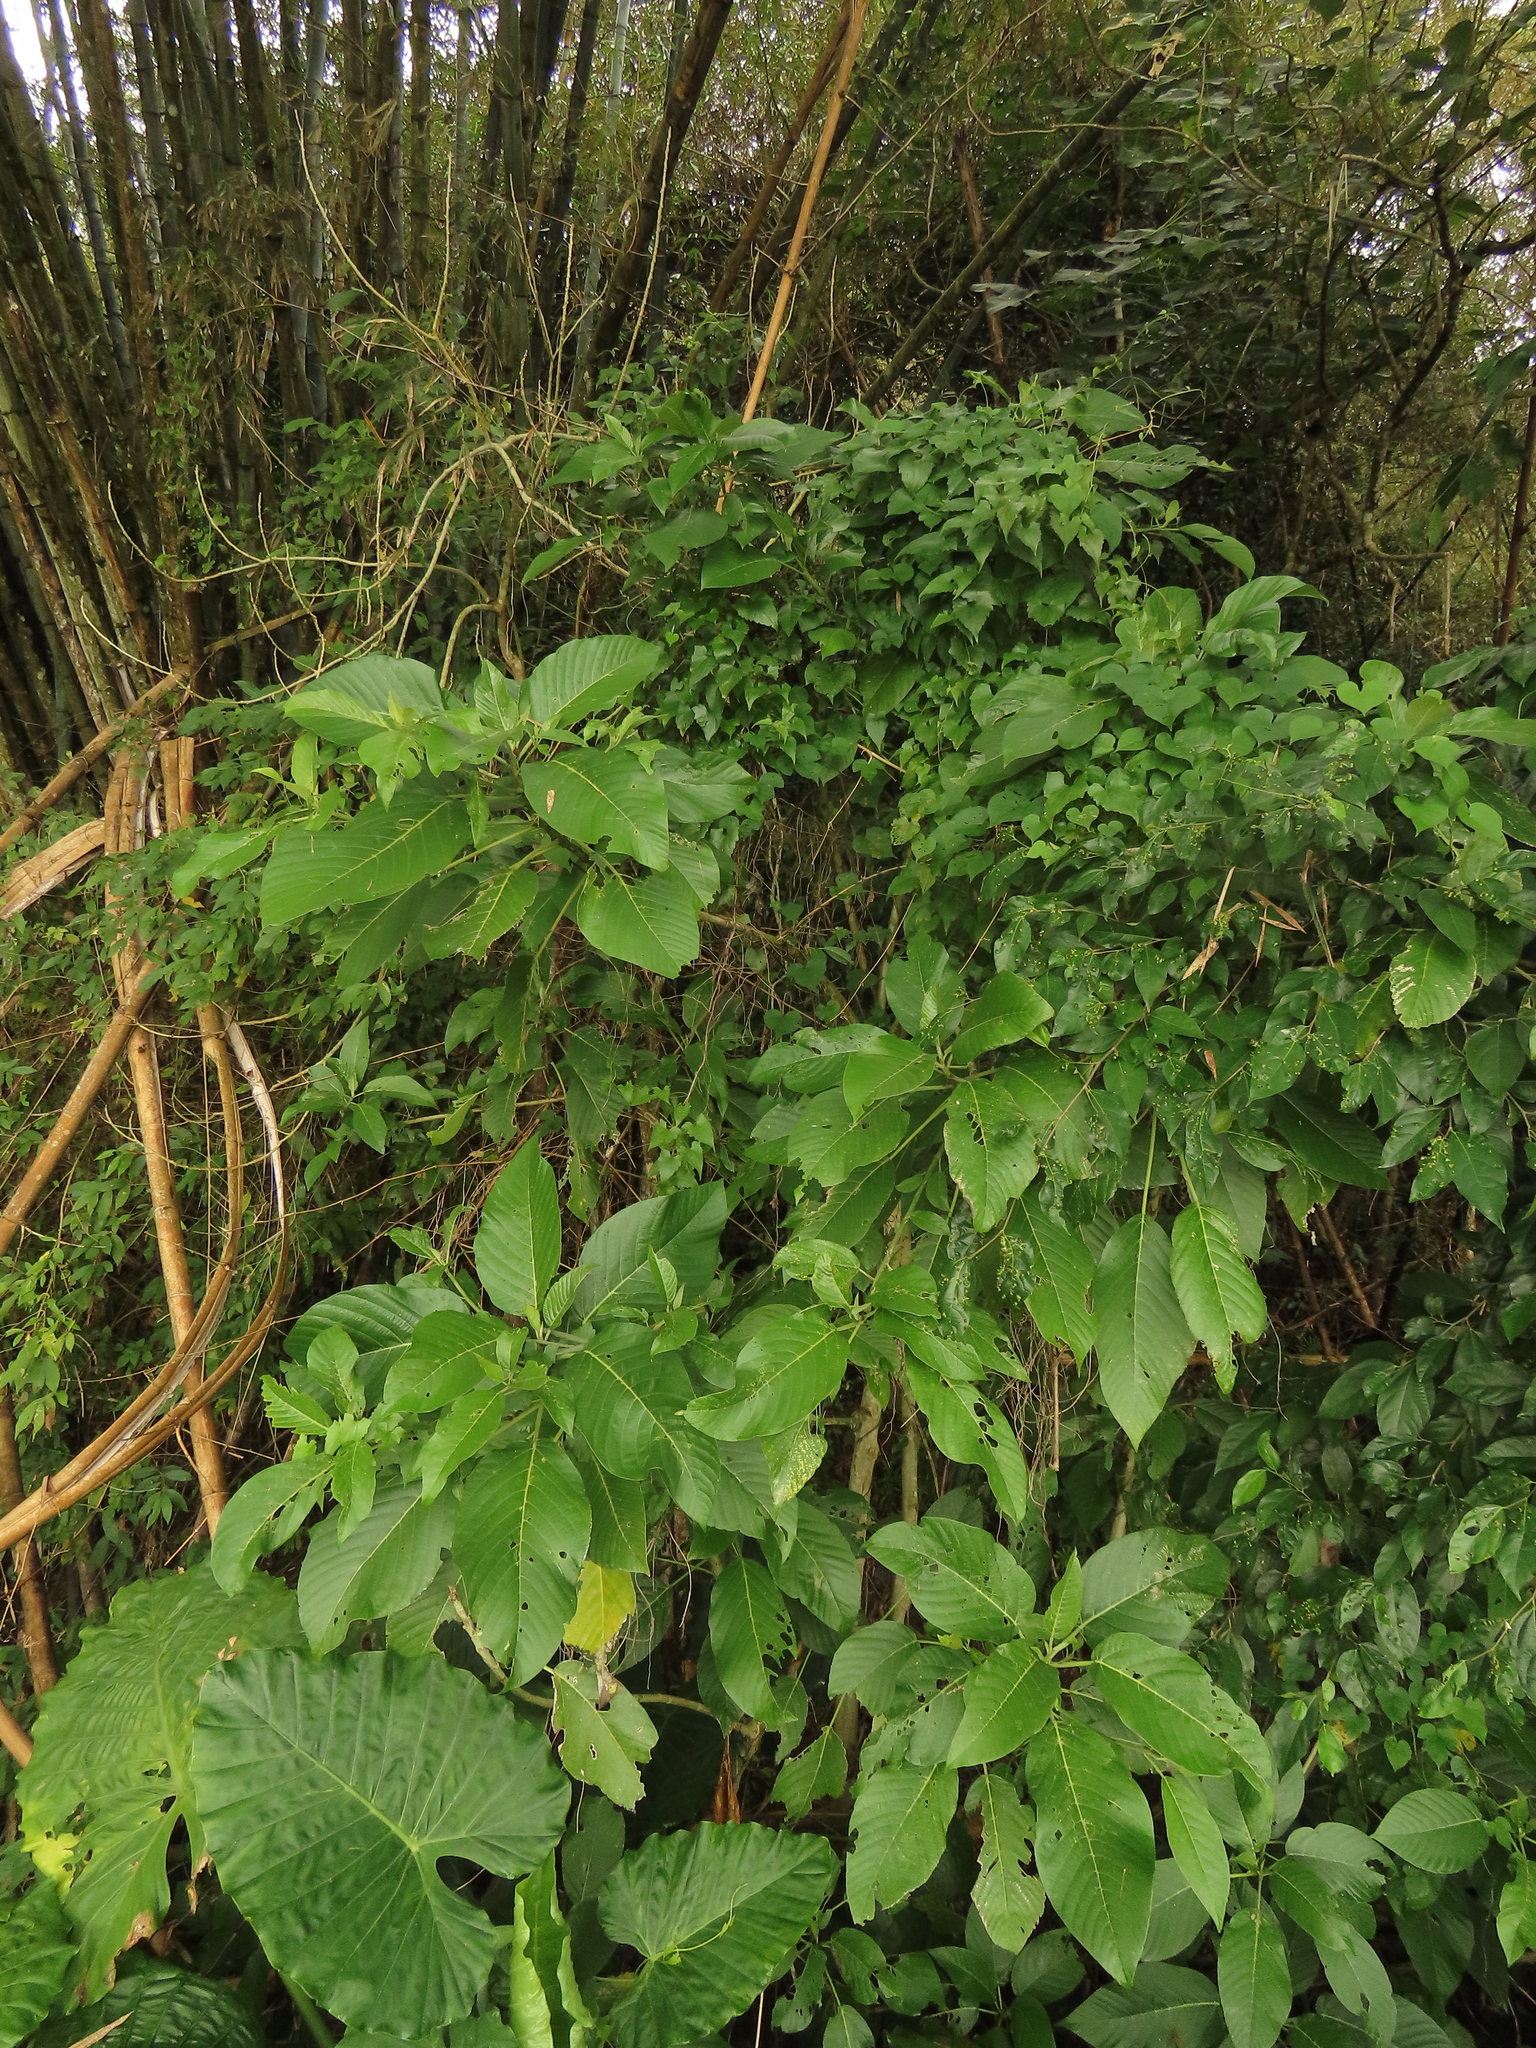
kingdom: Plantae
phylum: Tracheophyta
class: Magnoliopsida
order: Rosales
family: Urticaceae
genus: Dendrocnide
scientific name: Dendrocnide meyeniana
